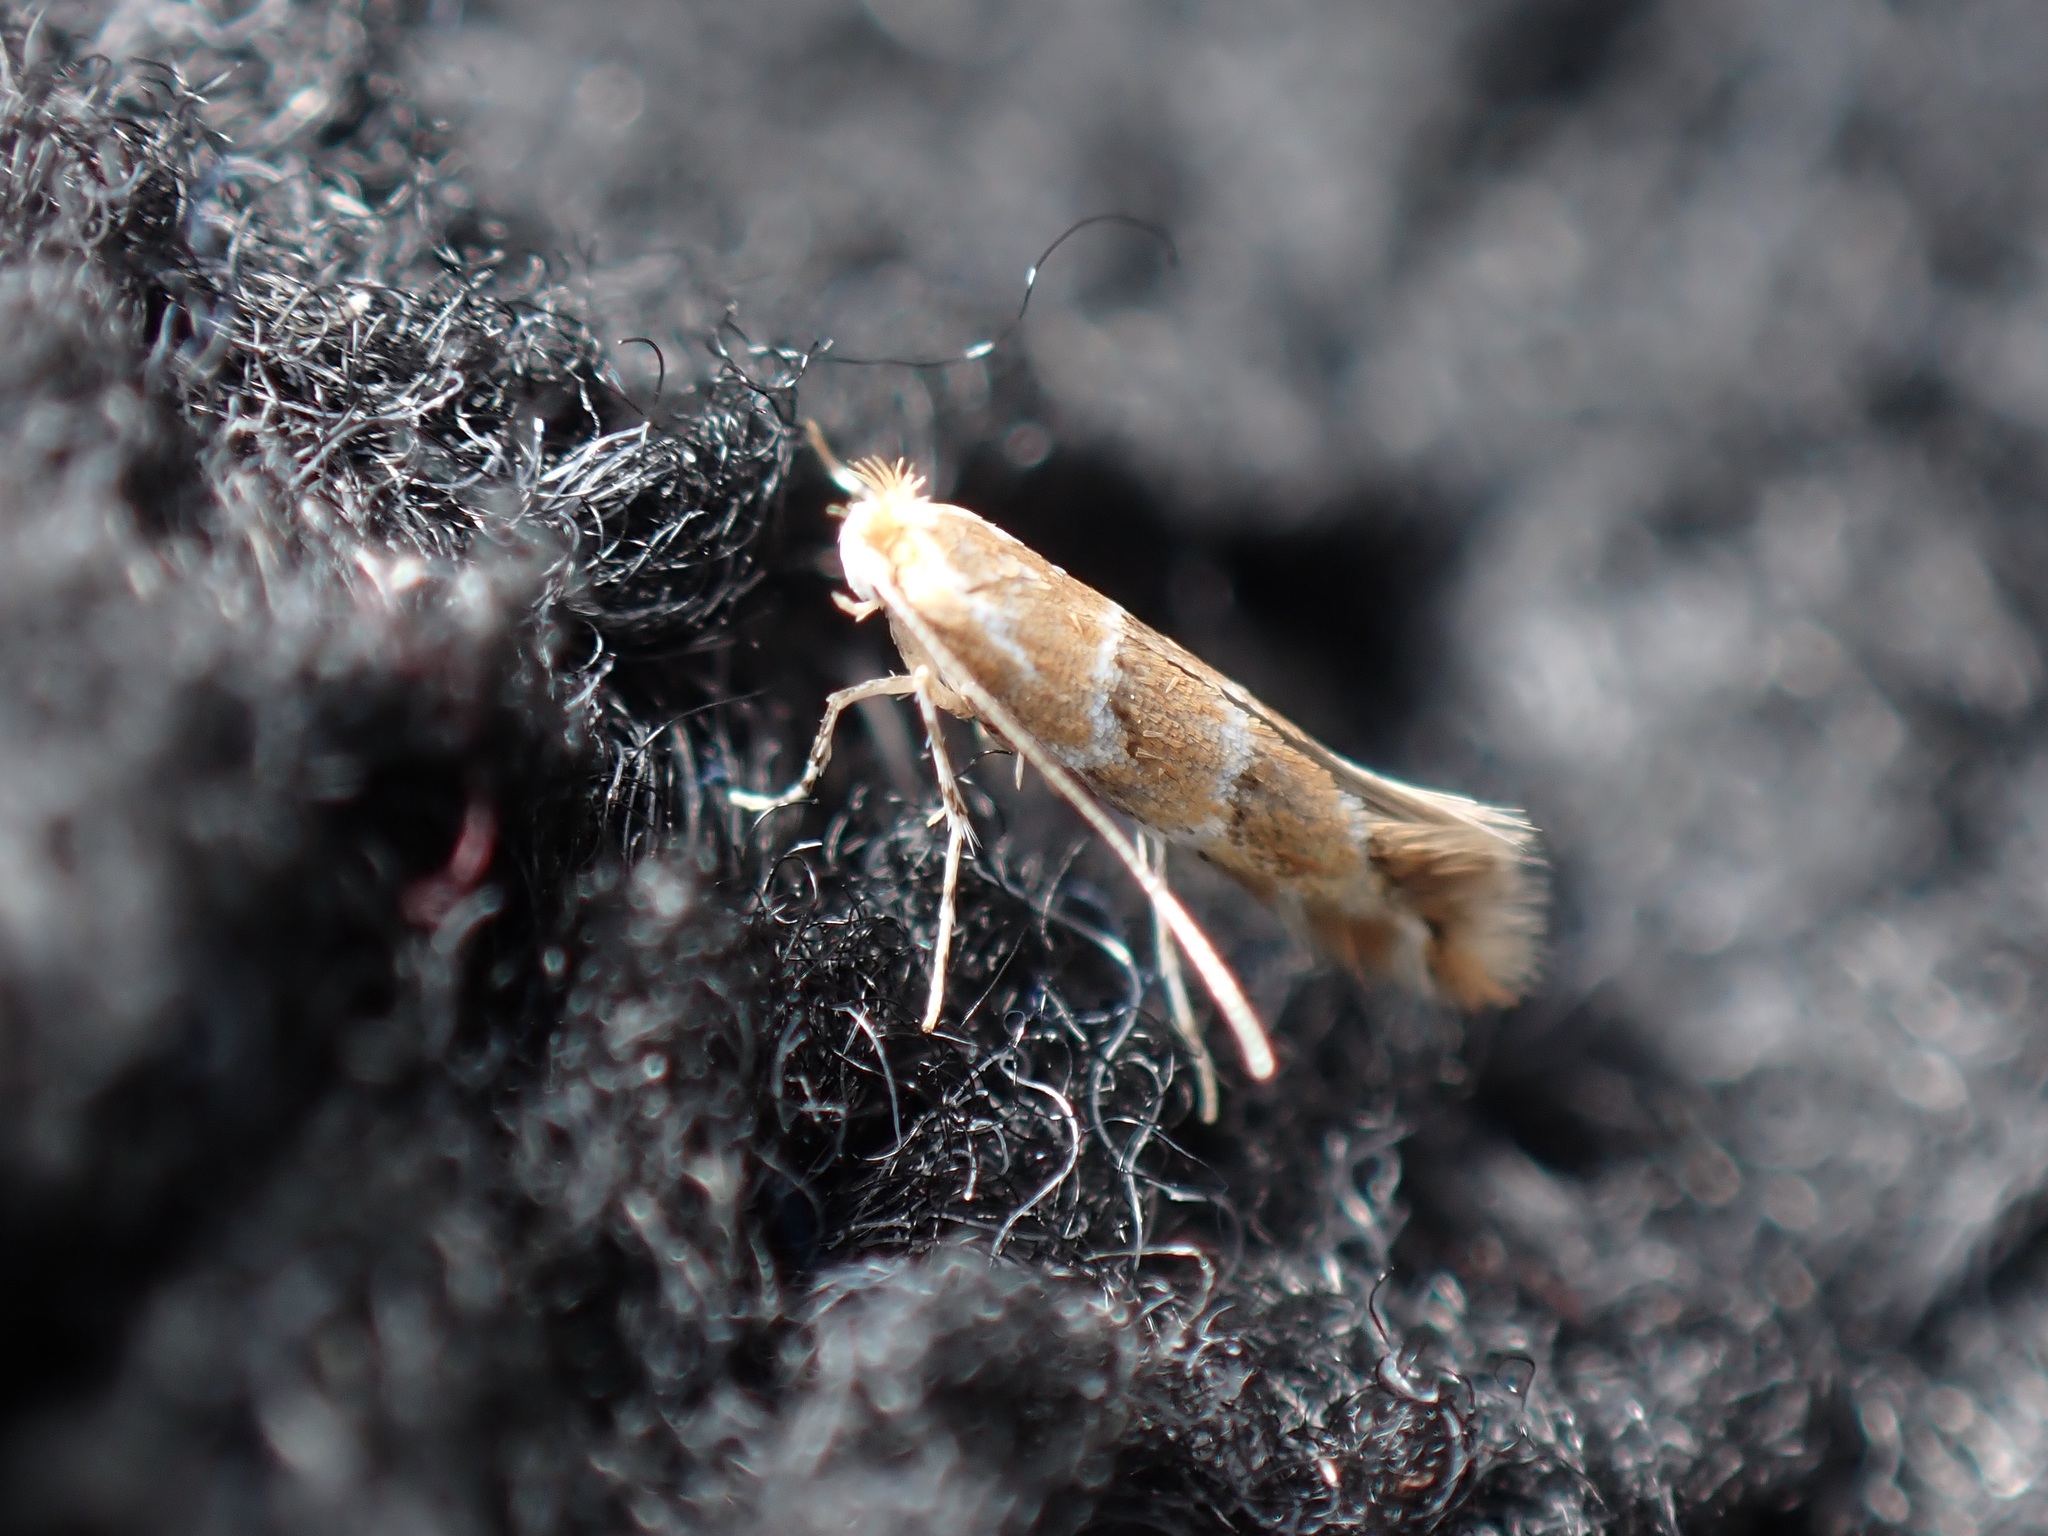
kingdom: Animalia
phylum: Arthropoda
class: Insecta
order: Lepidoptera
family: Gracillariidae
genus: Cameraria
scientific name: Cameraria ohridella
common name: Horse-chestnut leaf-miner
